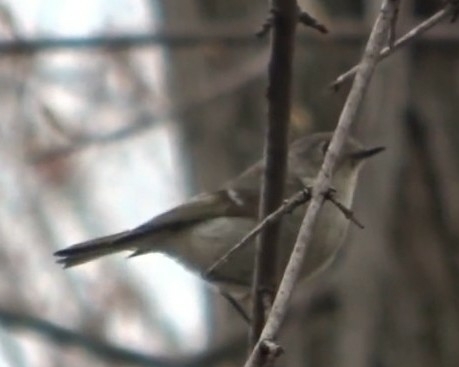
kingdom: Animalia
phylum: Chordata
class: Aves
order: Passeriformes
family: Regulidae
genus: Regulus
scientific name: Regulus calendula
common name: Ruby-crowned kinglet
